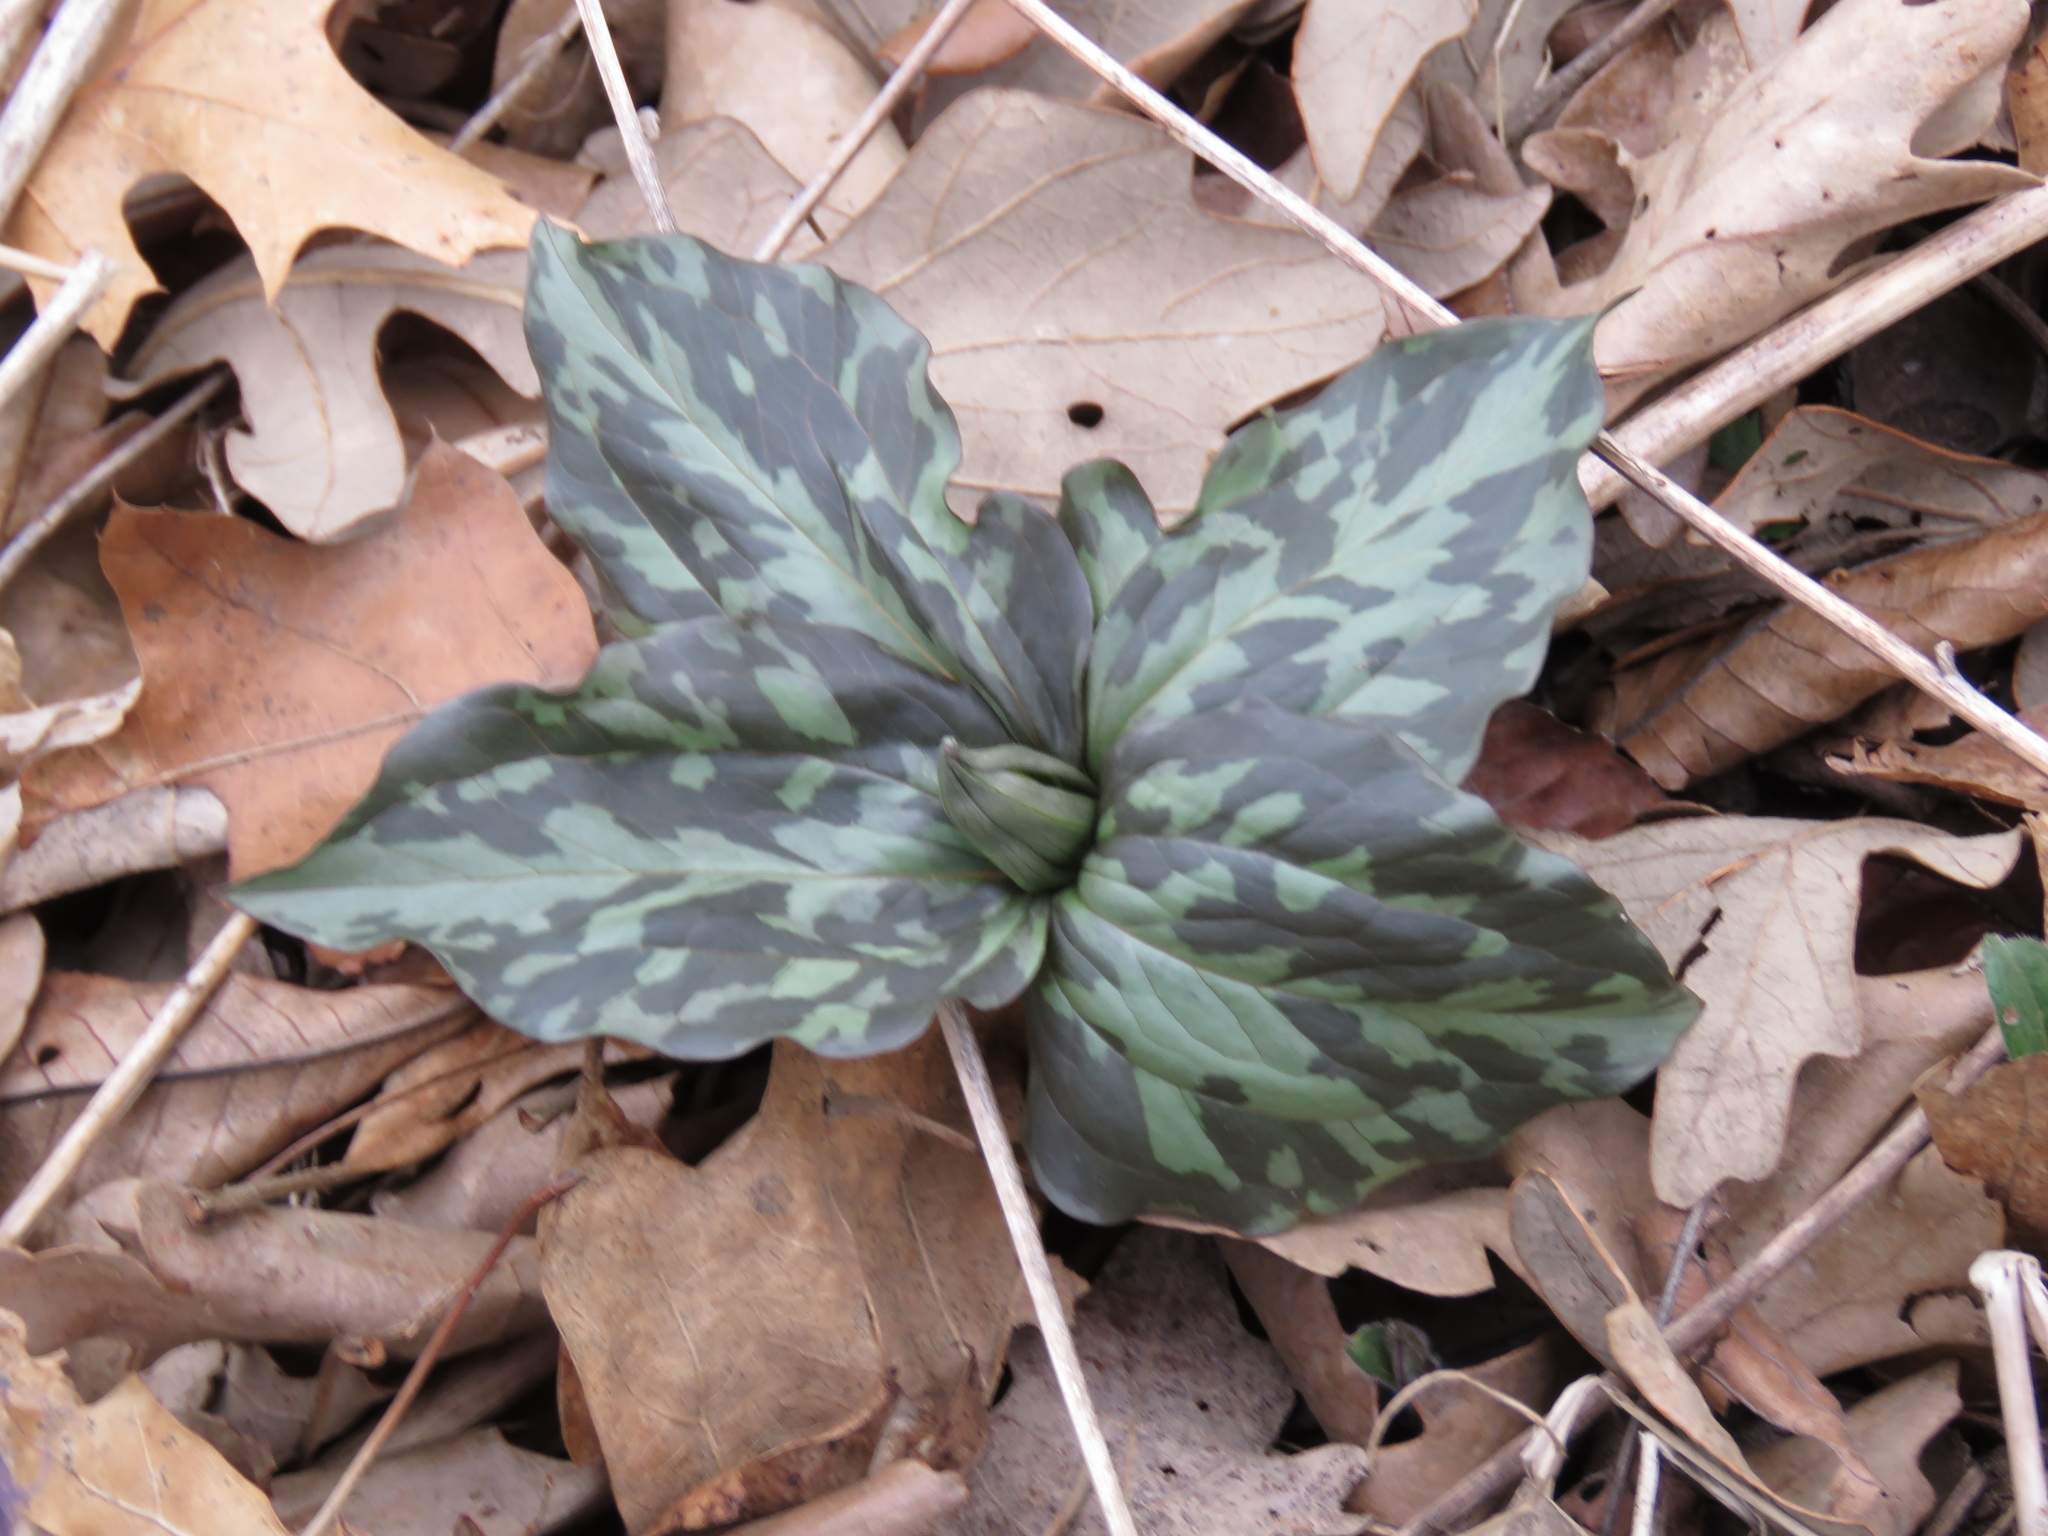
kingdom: Plantae
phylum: Tracheophyta
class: Liliopsida
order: Liliales
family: Melanthiaceae
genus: Trillium
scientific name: Trillium recurvatum
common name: Bloody butcher
